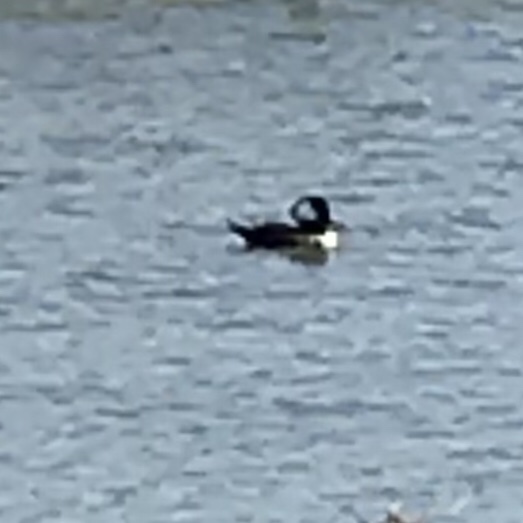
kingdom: Animalia
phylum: Chordata
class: Aves
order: Anseriformes
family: Anatidae
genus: Lophodytes
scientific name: Lophodytes cucullatus
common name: Hooded merganser
